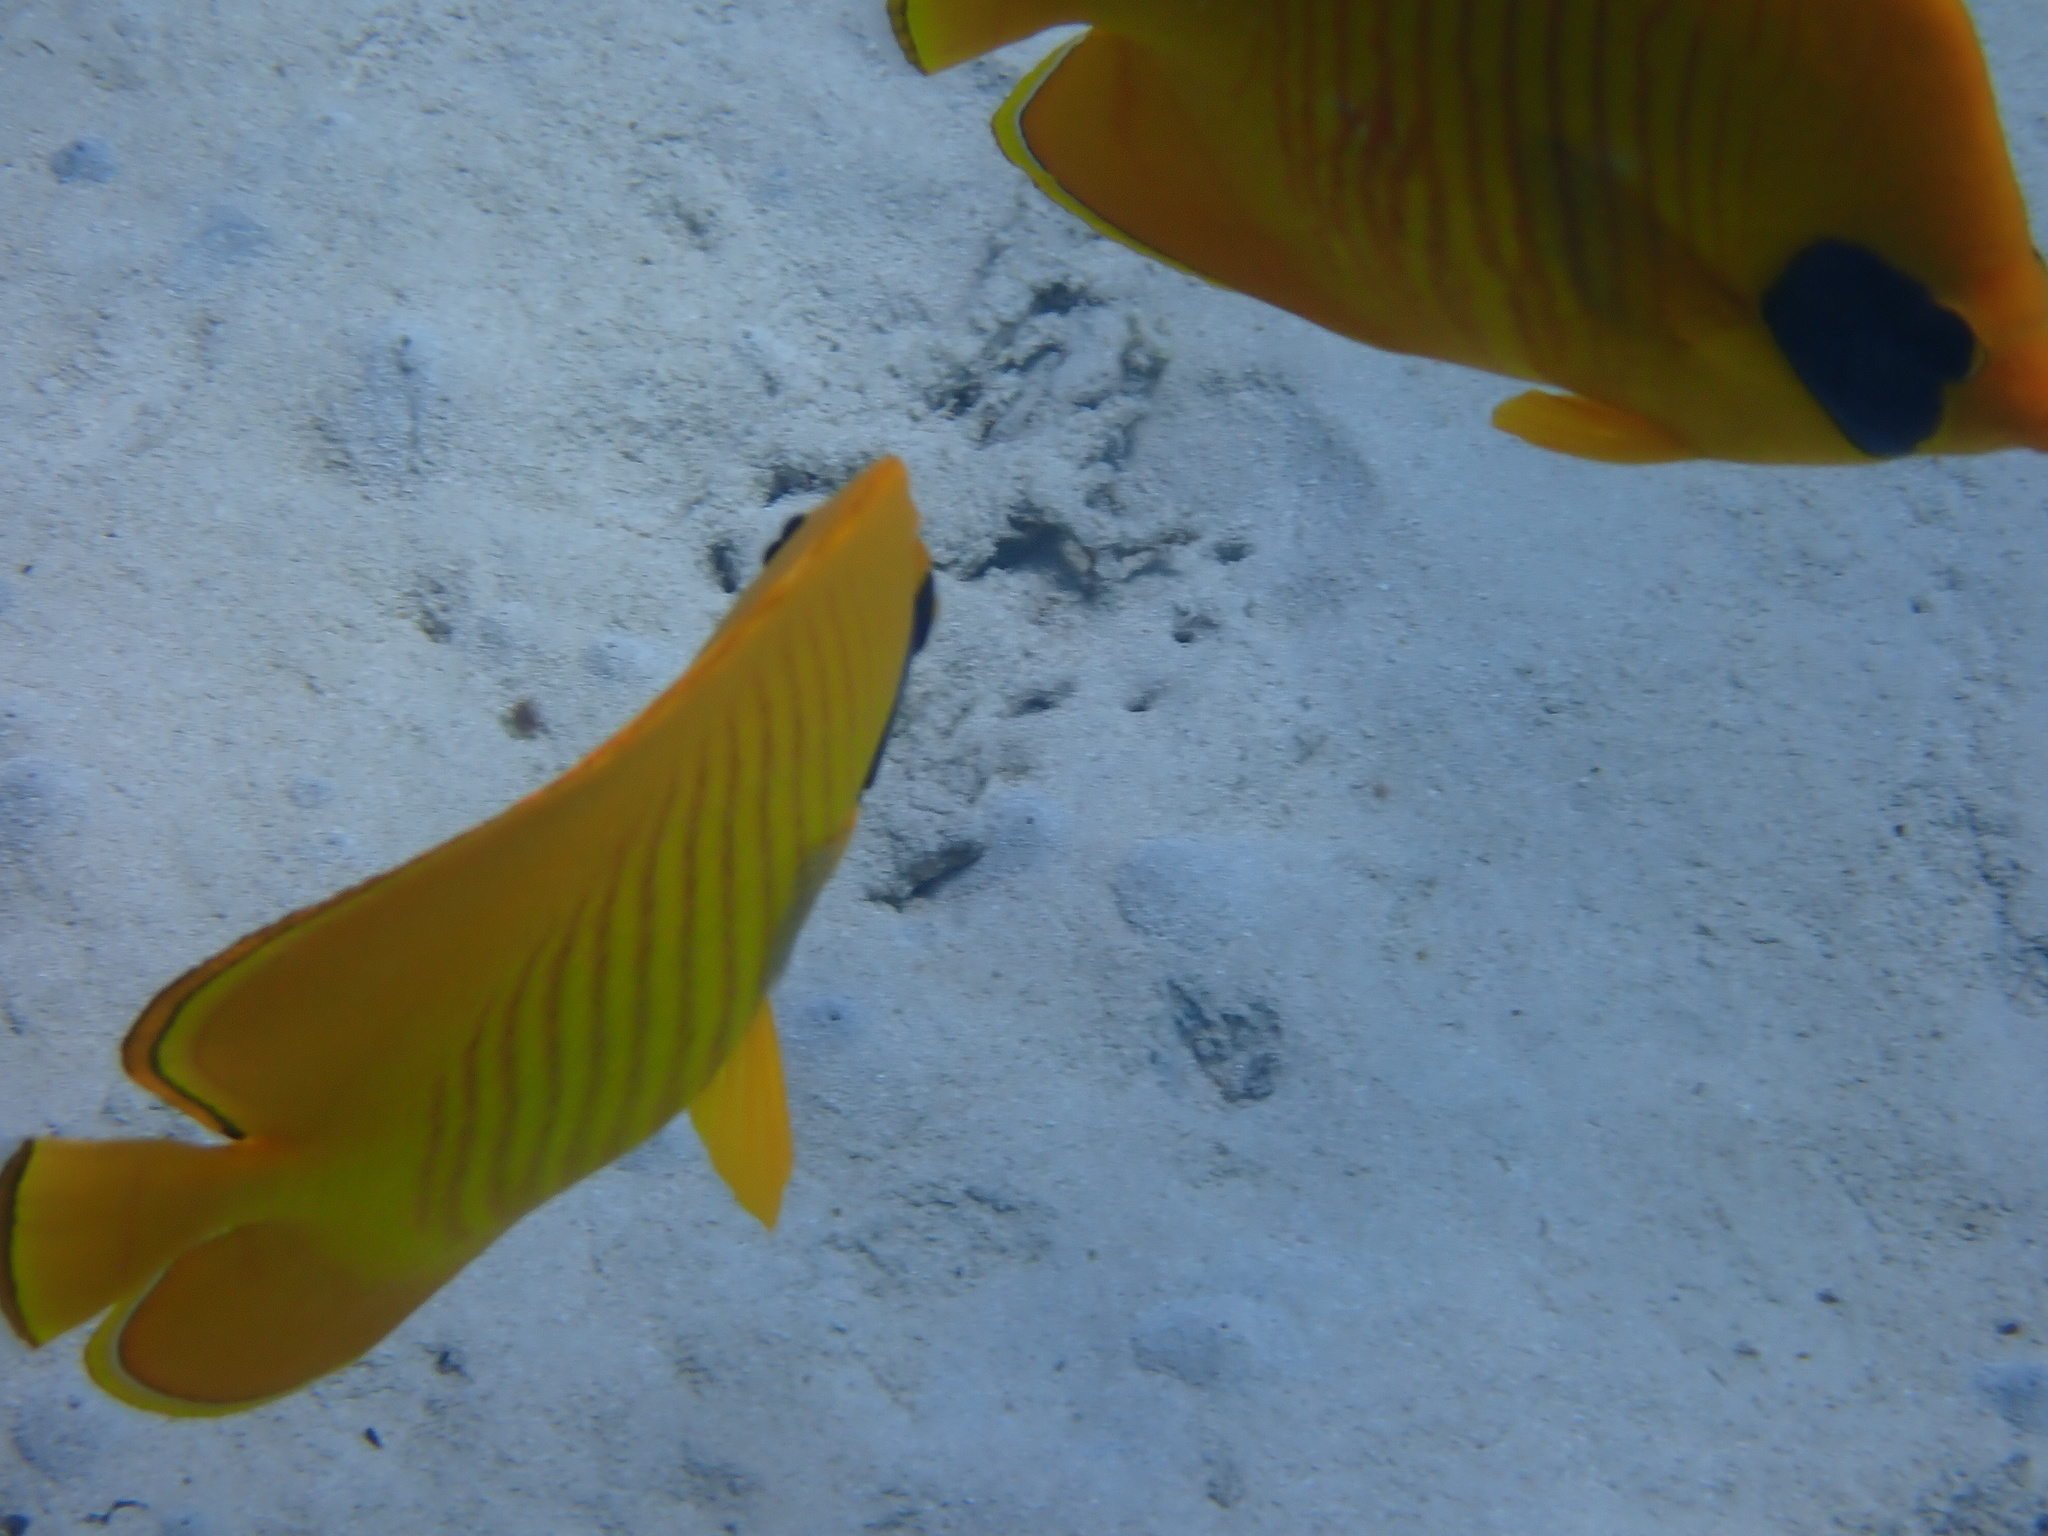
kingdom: Animalia
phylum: Chordata
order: Perciformes
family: Chaetodontidae
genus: Chaetodon
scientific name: Chaetodon semilarvatus
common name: Golden butterflyfish
